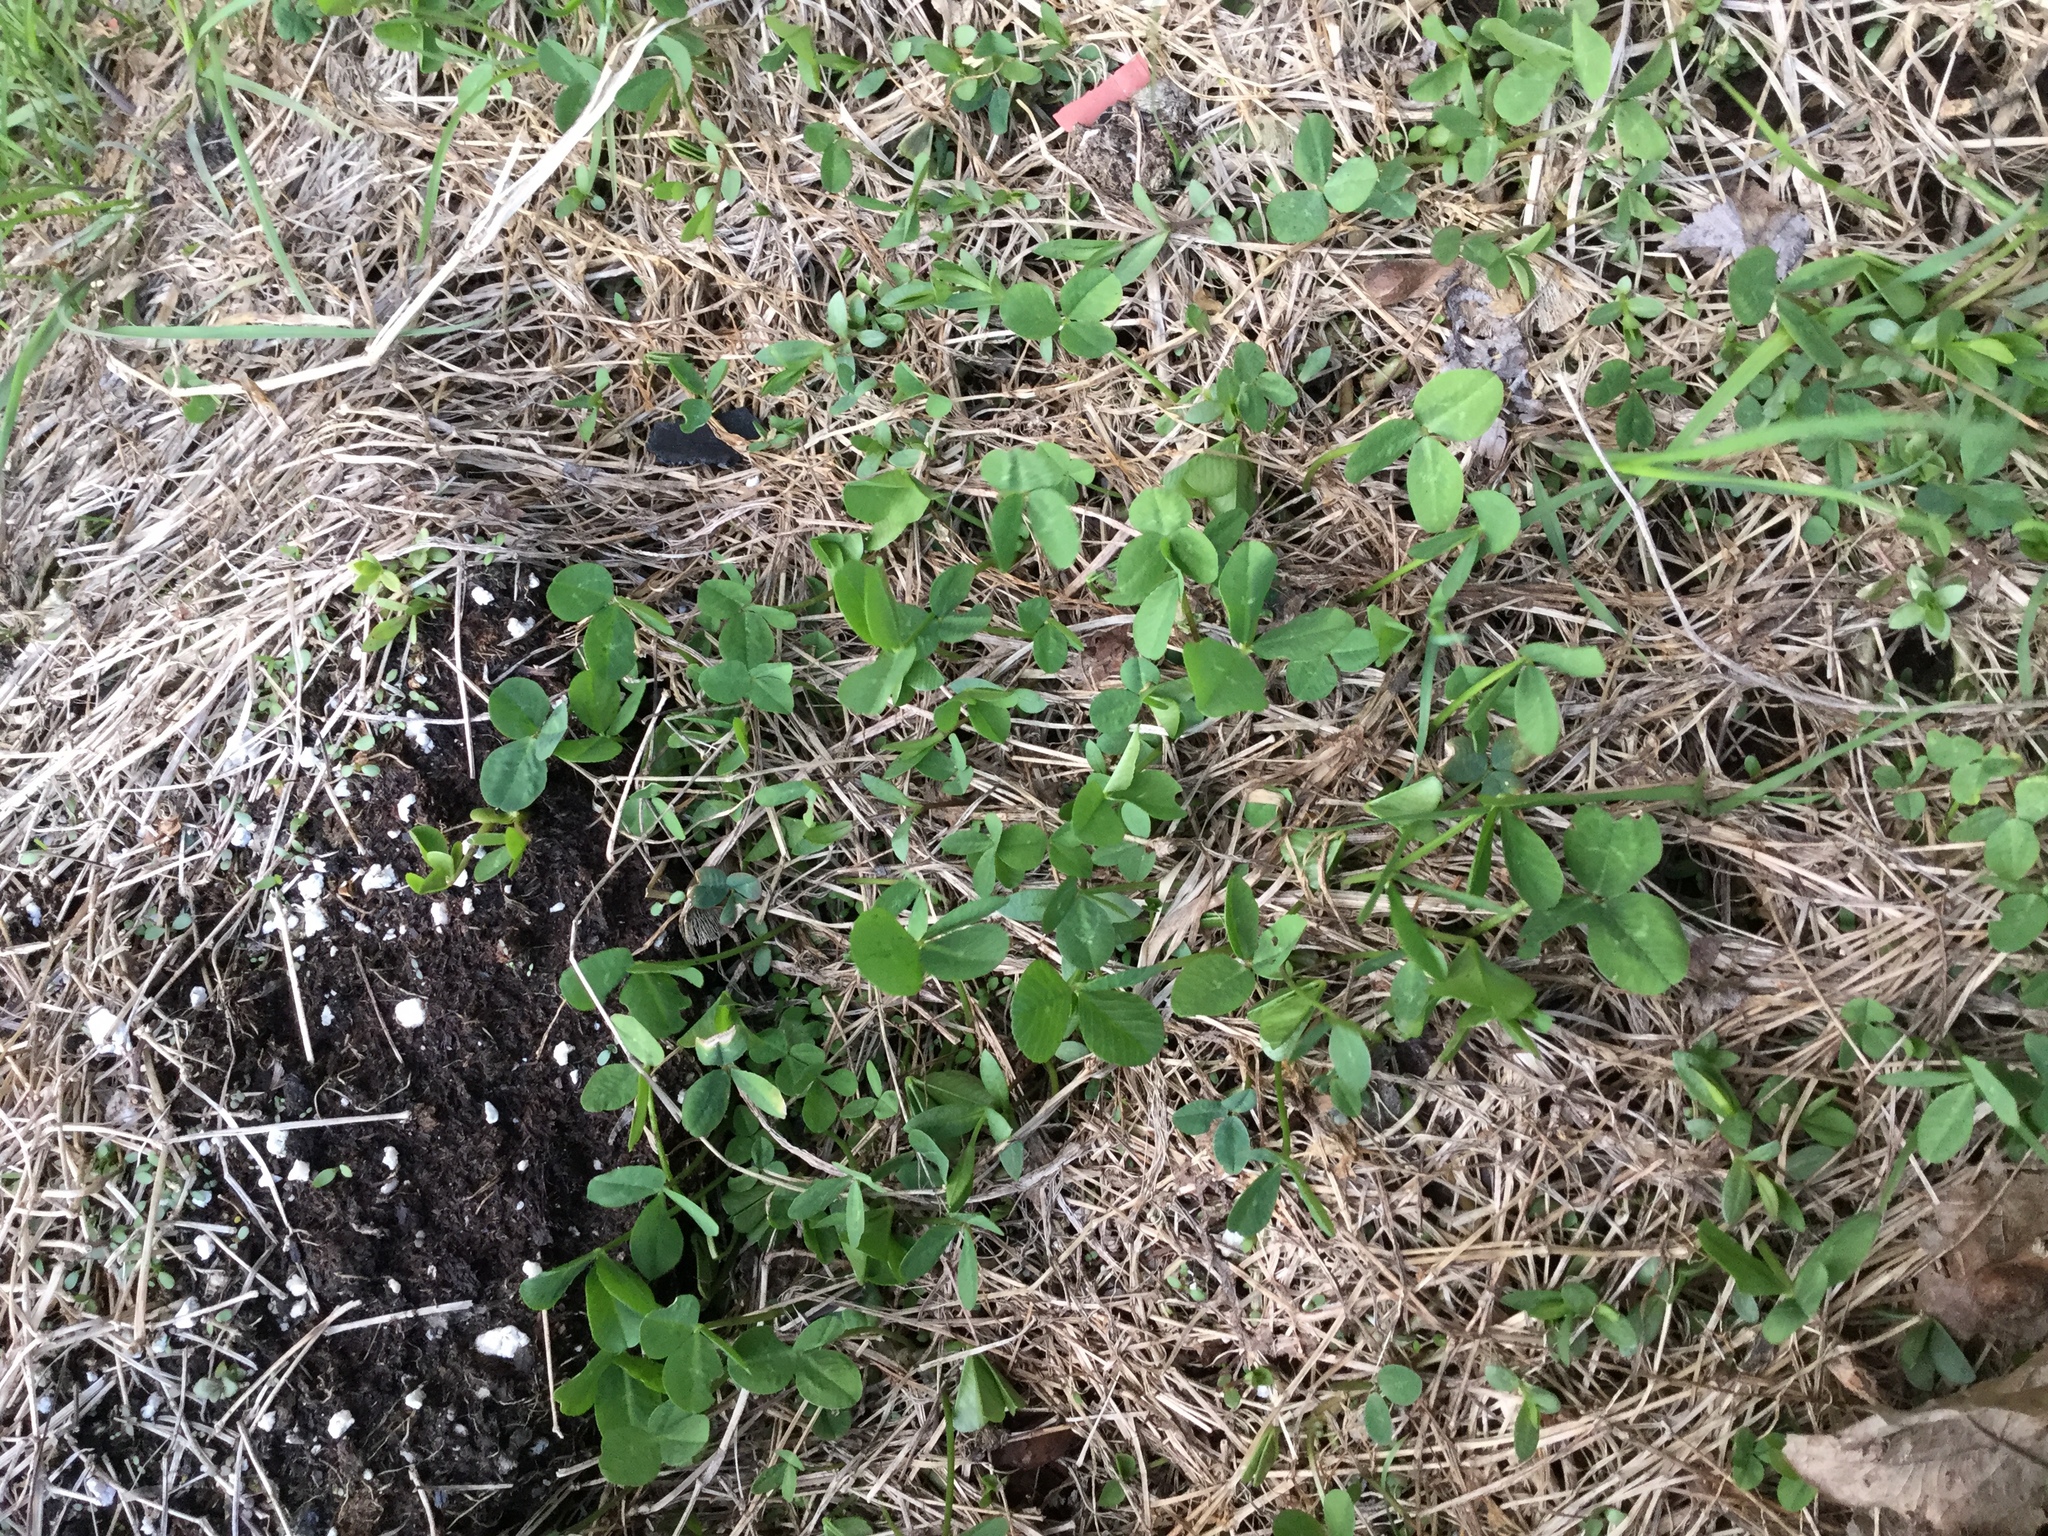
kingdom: Plantae
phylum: Tracheophyta
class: Magnoliopsida
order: Fabales
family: Fabaceae
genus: Trifolium
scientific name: Trifolium pratense
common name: Red clover
